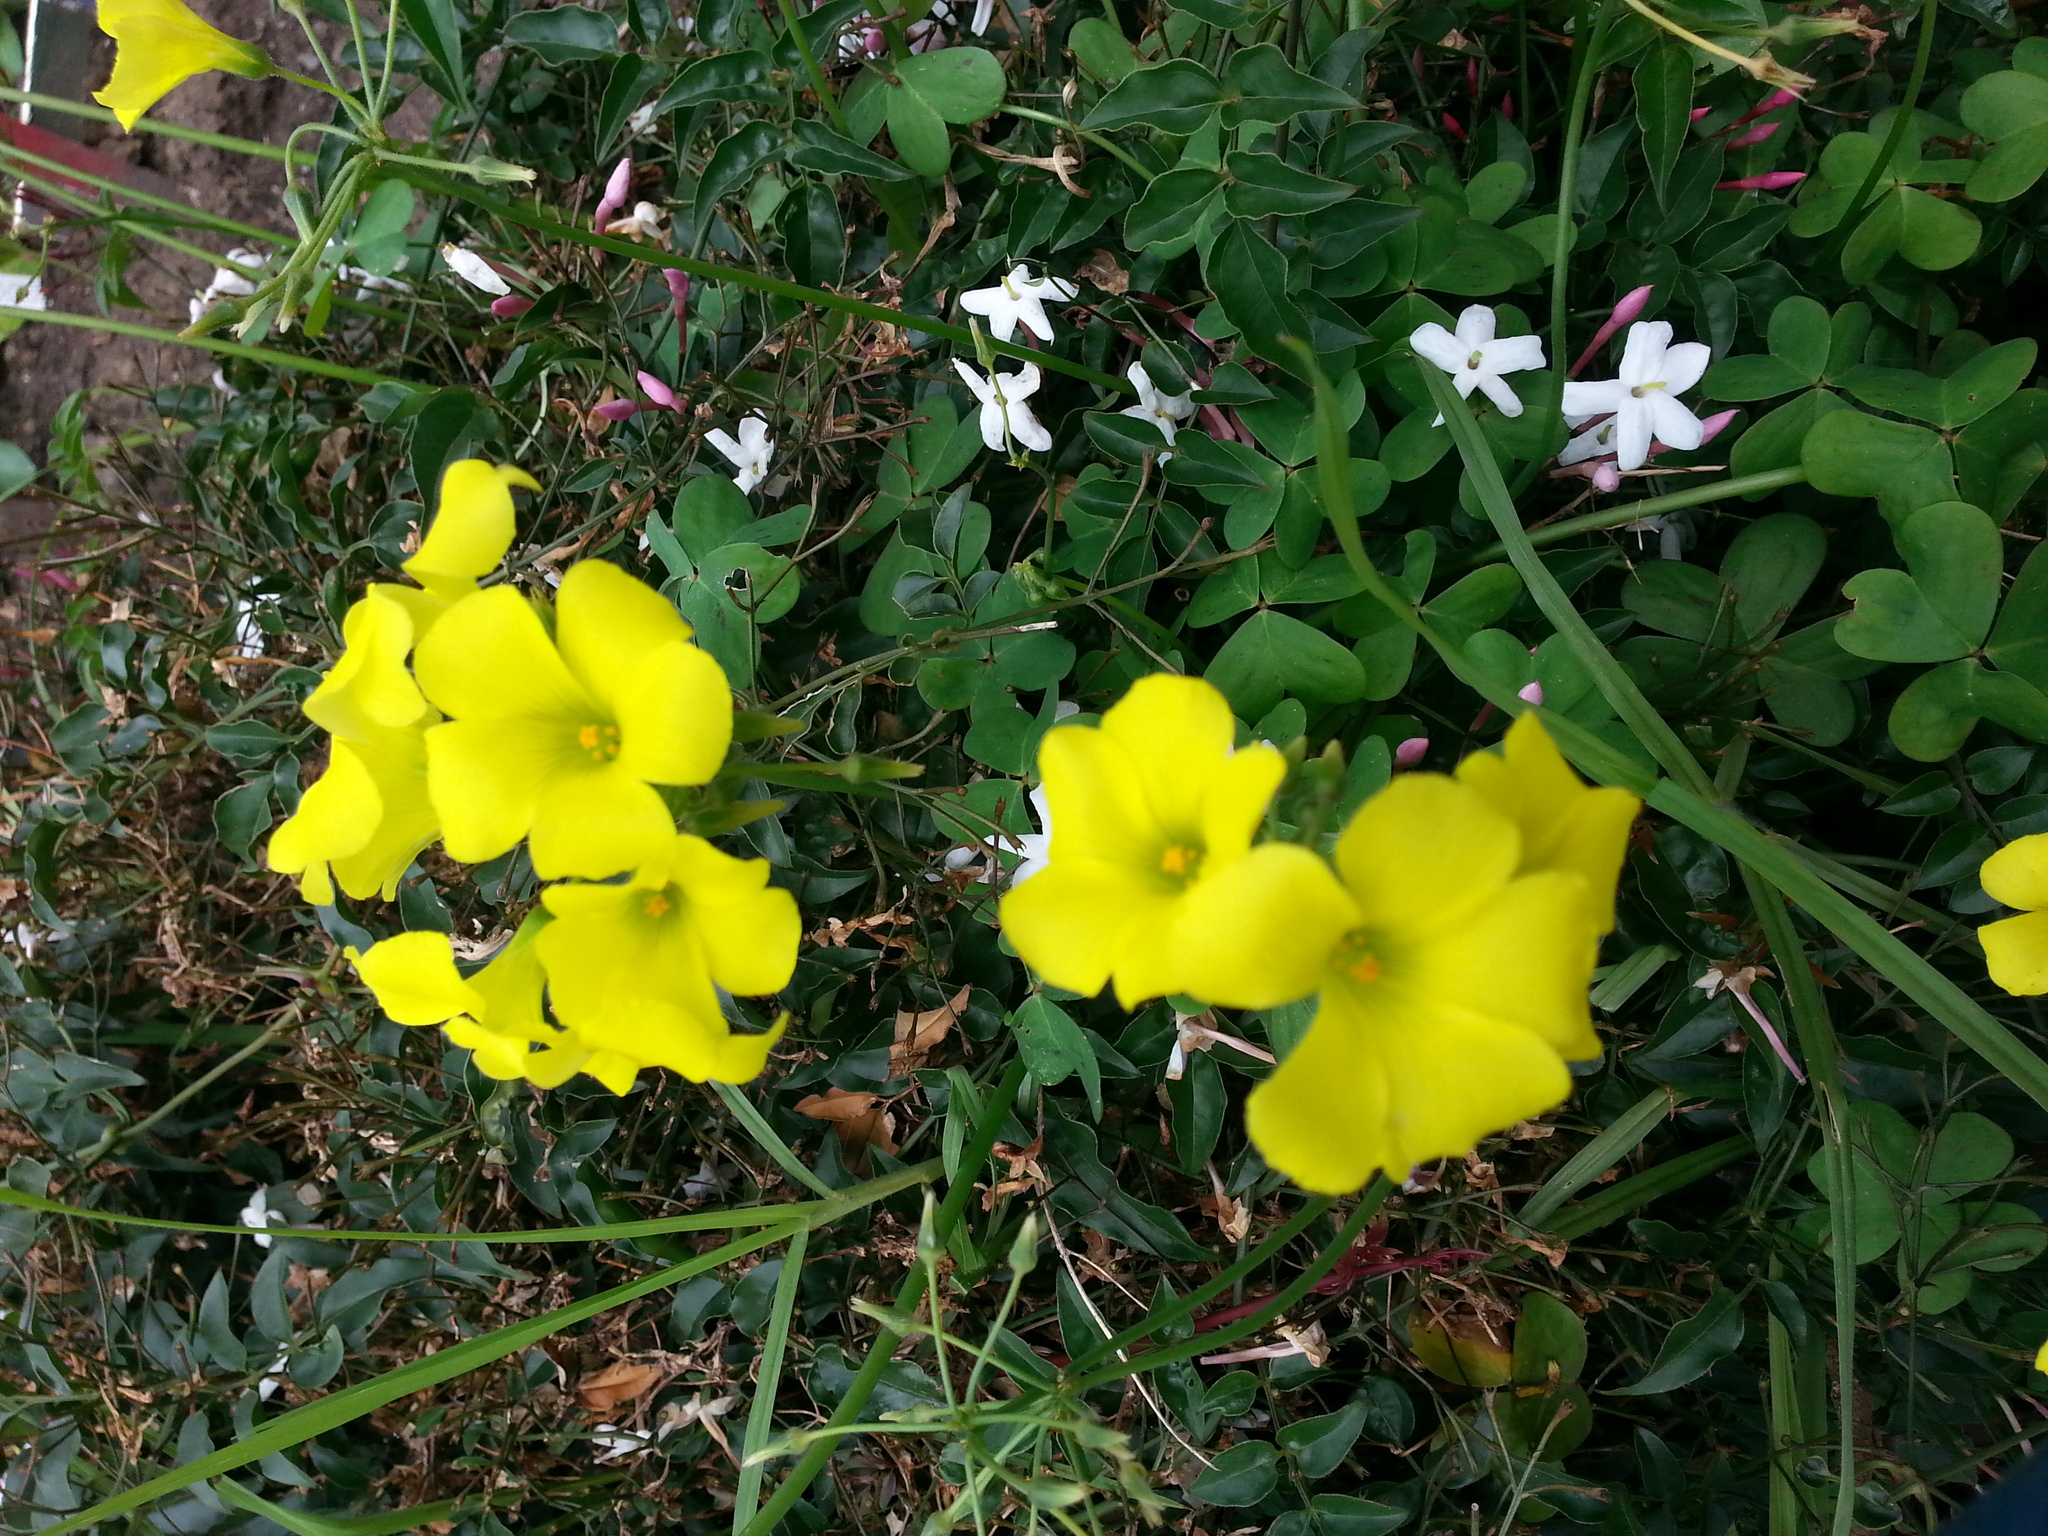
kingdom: Plantae
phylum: Tracheophyta
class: Magnoliopsida
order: Oxalidales
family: Oxalidaceae
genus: Oxalis
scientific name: Oxalis pes-caprae
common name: Bermuda-buttercup
